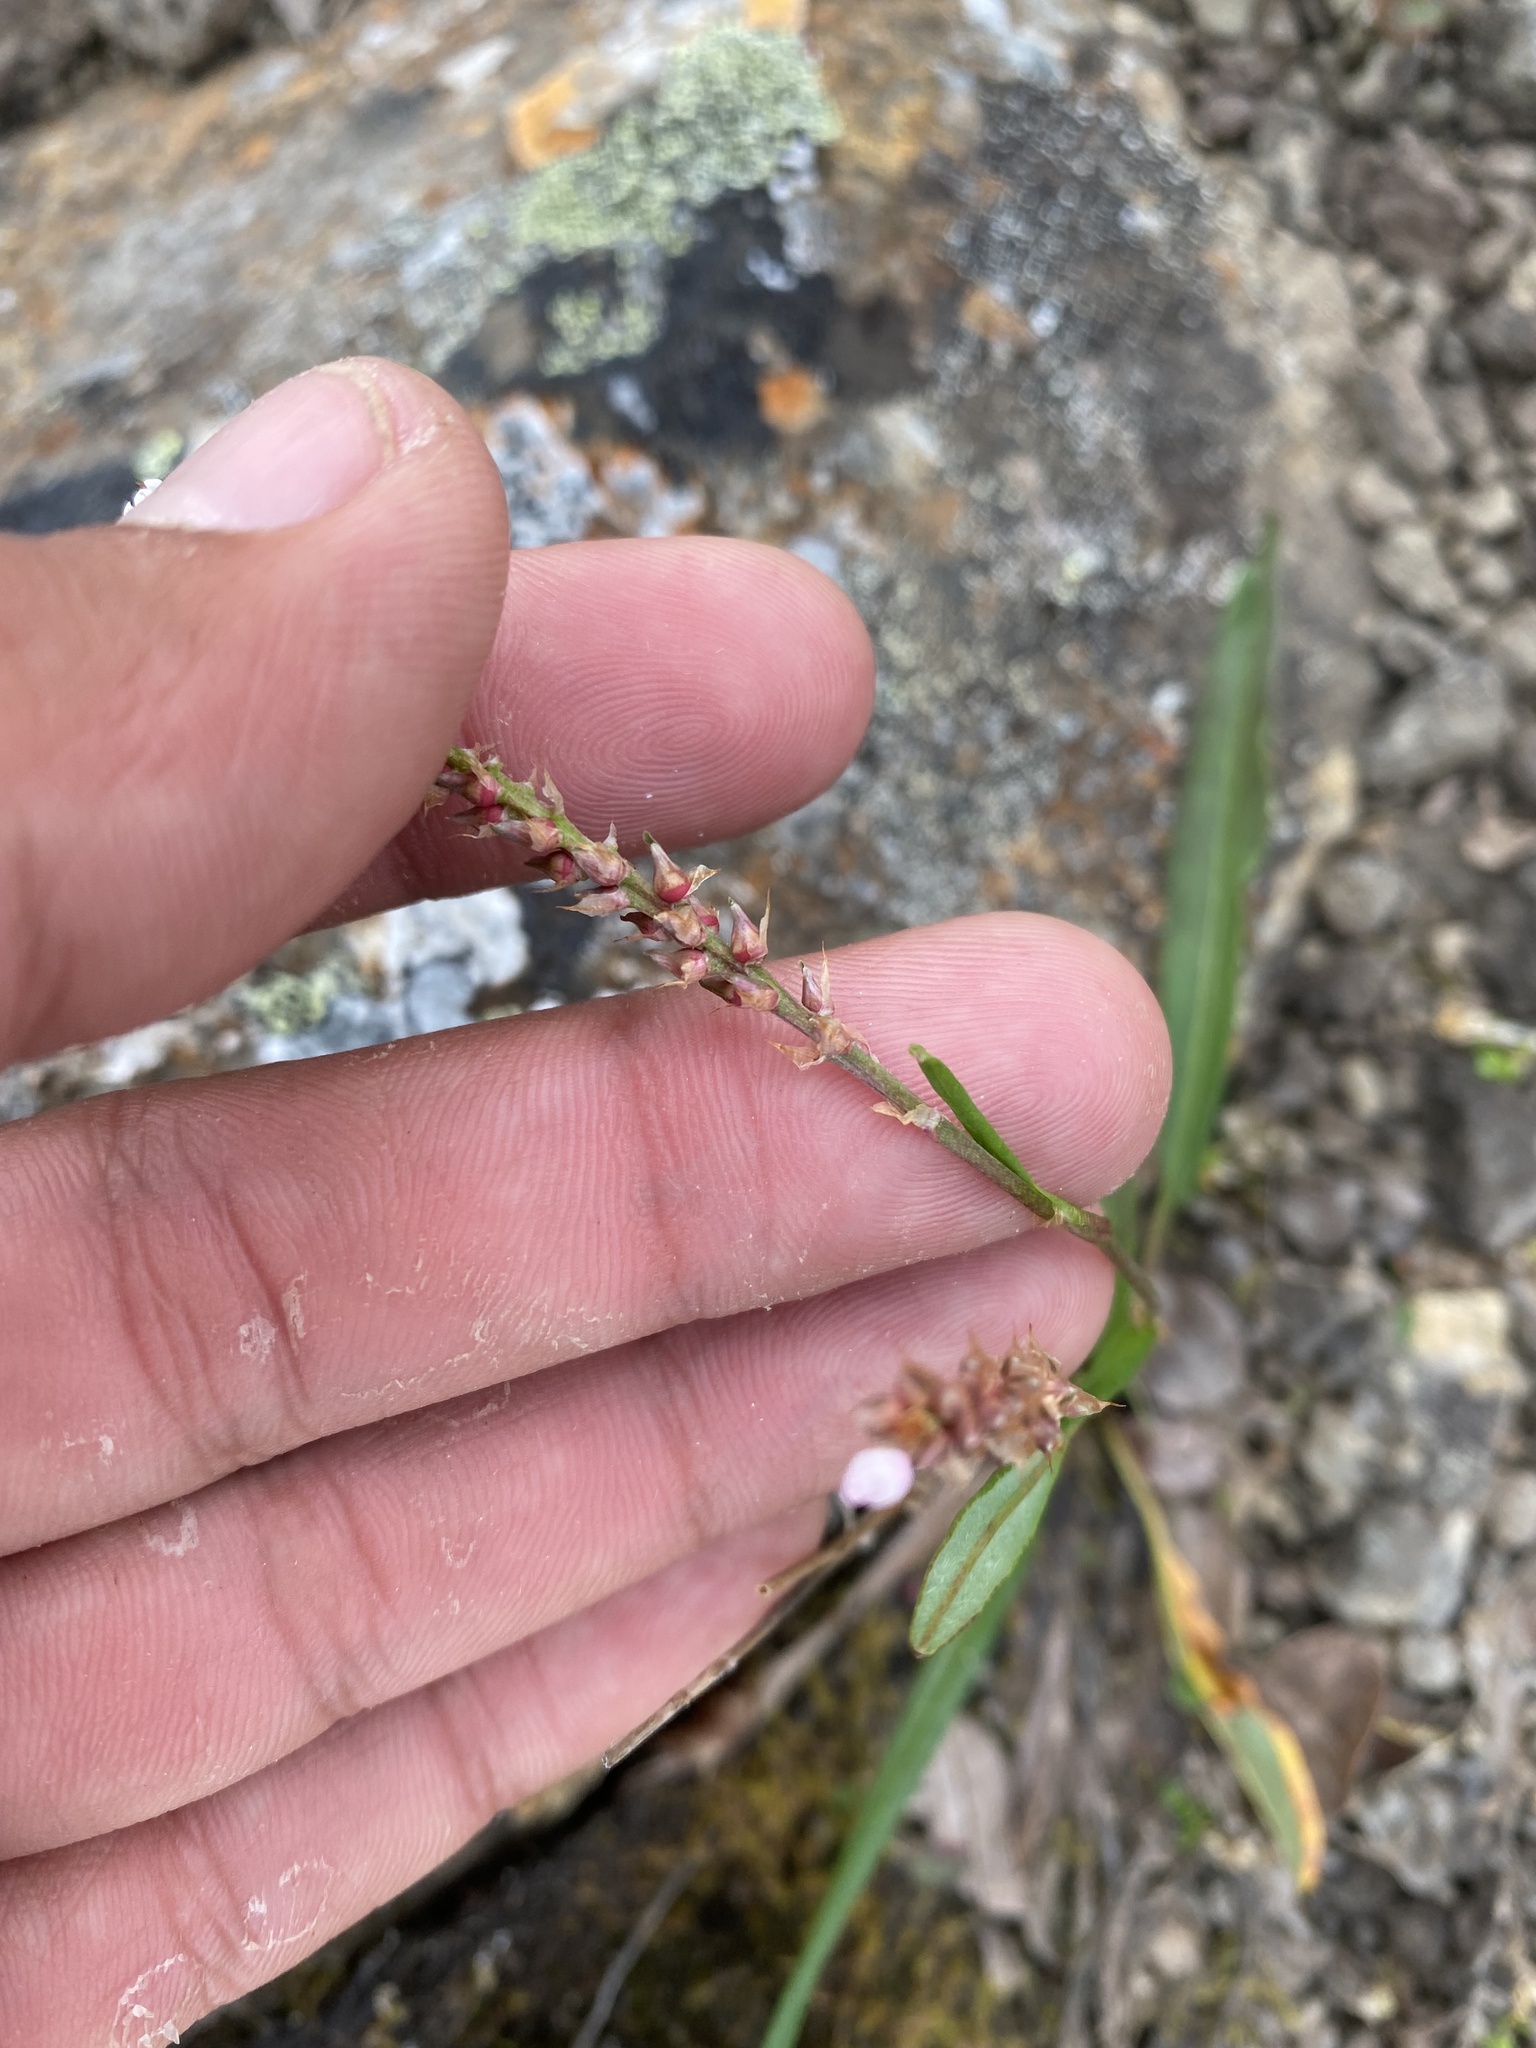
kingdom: Plantae
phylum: Tracheophyta
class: Magnoliopsida
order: Caryophyllales
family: Polygonaceae
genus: Bistorta
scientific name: Bistorta vivipara
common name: Alpine bistort
